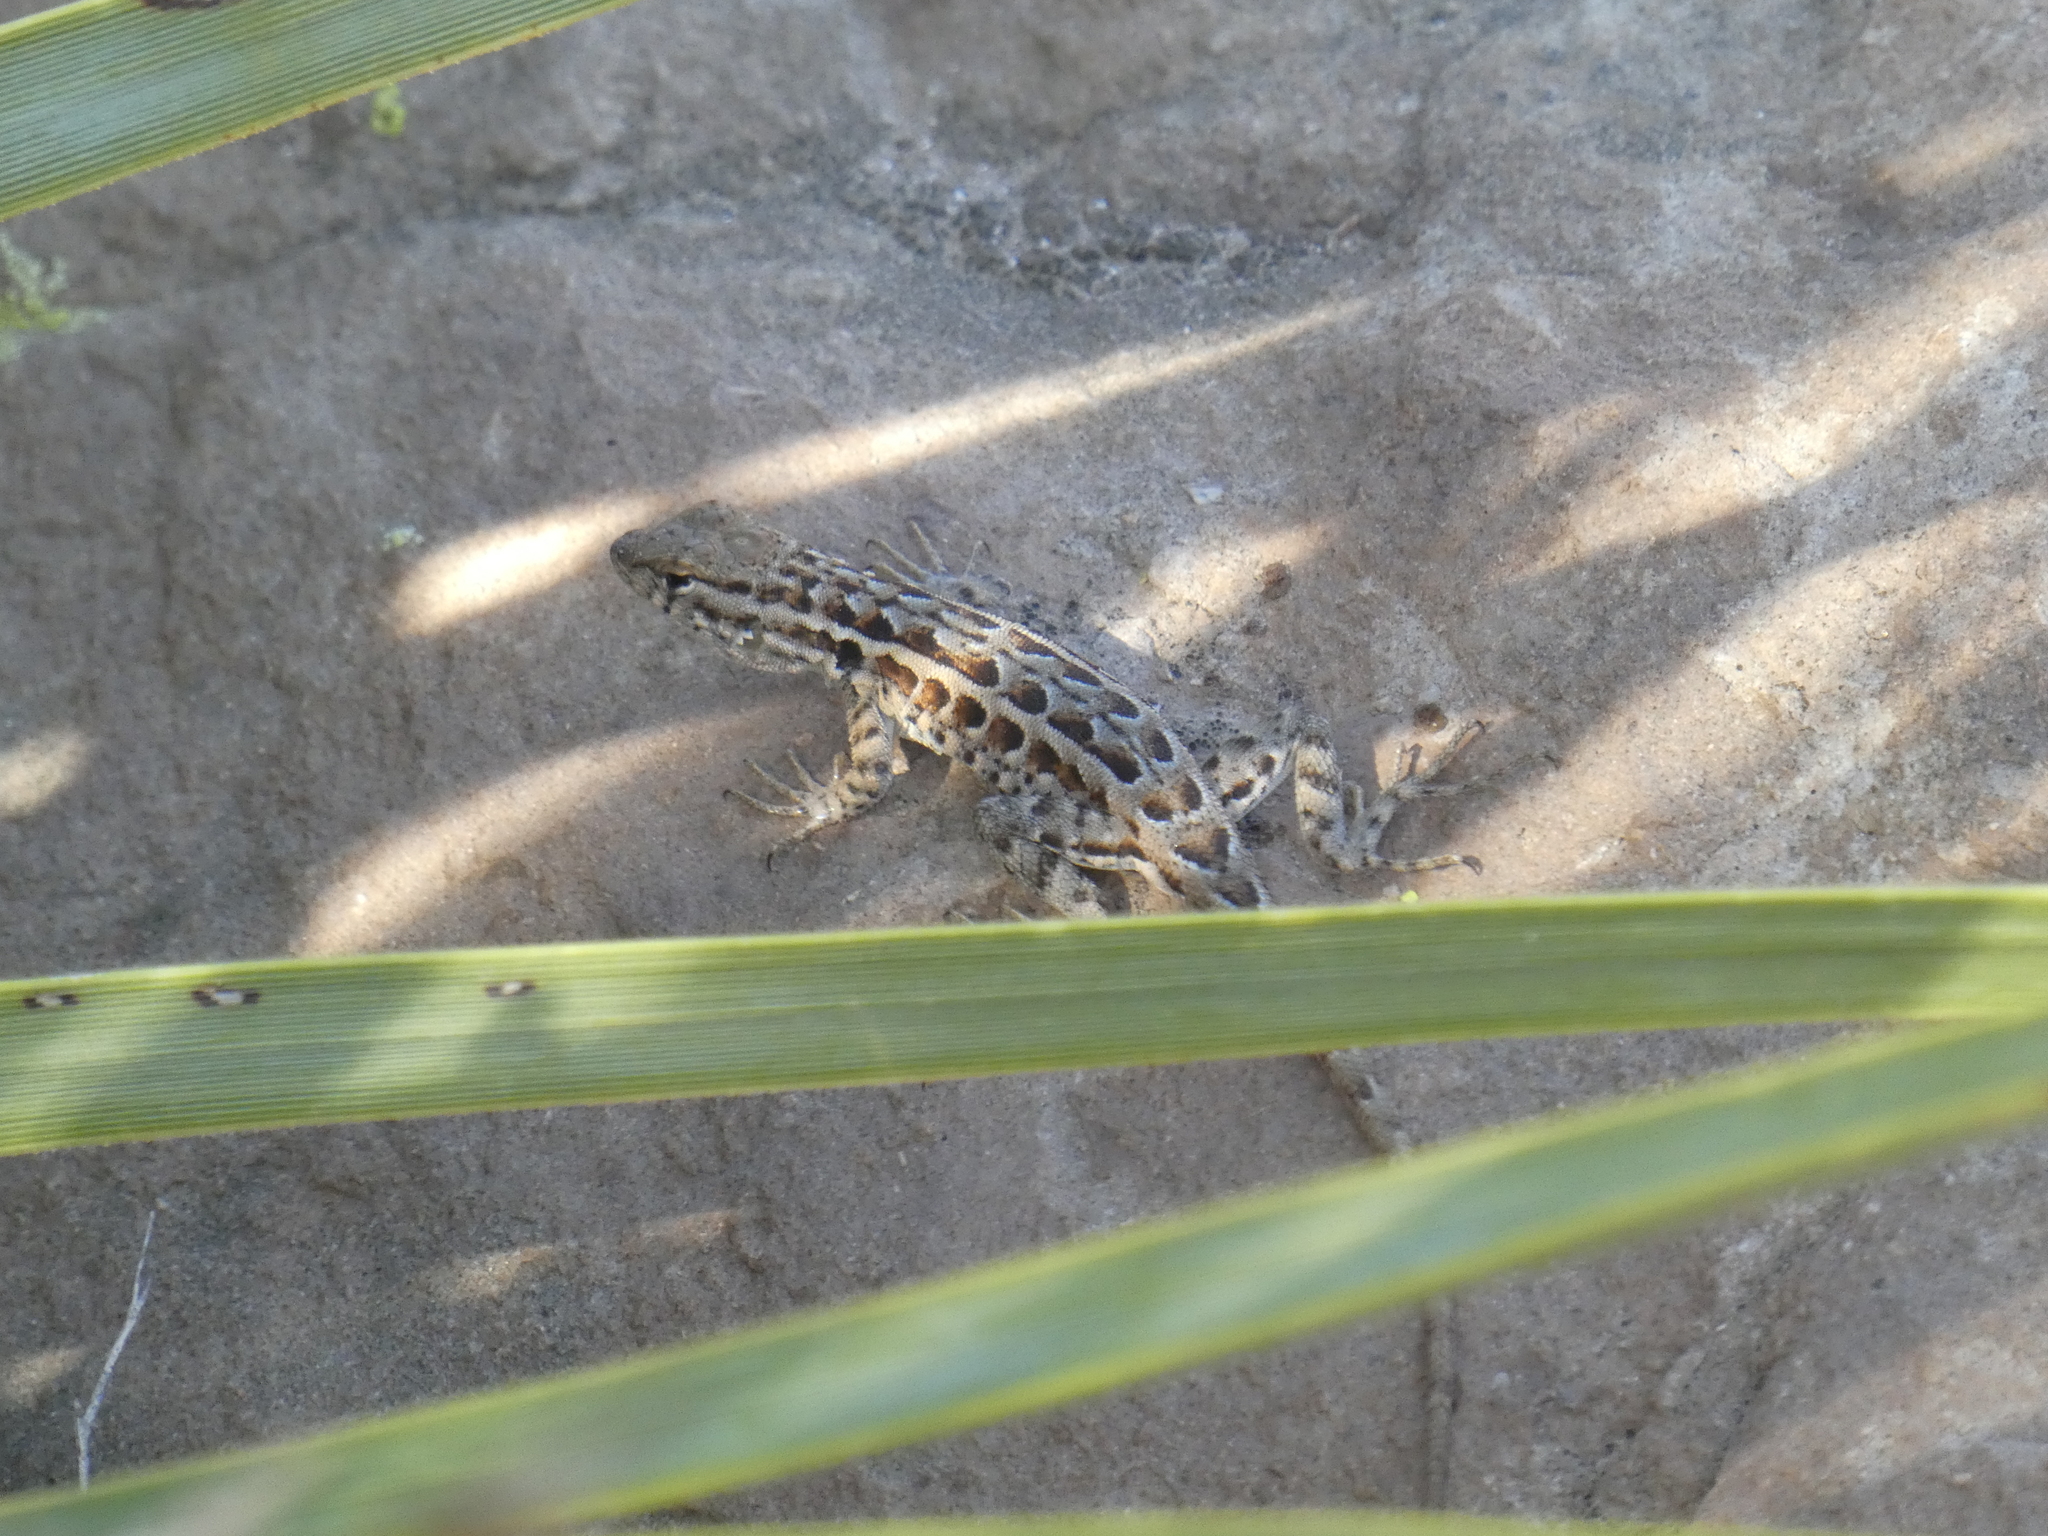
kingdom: Animalia
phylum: Chordata
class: Squamata
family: Phrynosomatidae
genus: Uta
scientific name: Uta stansburiana
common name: Side-blotched lizard
